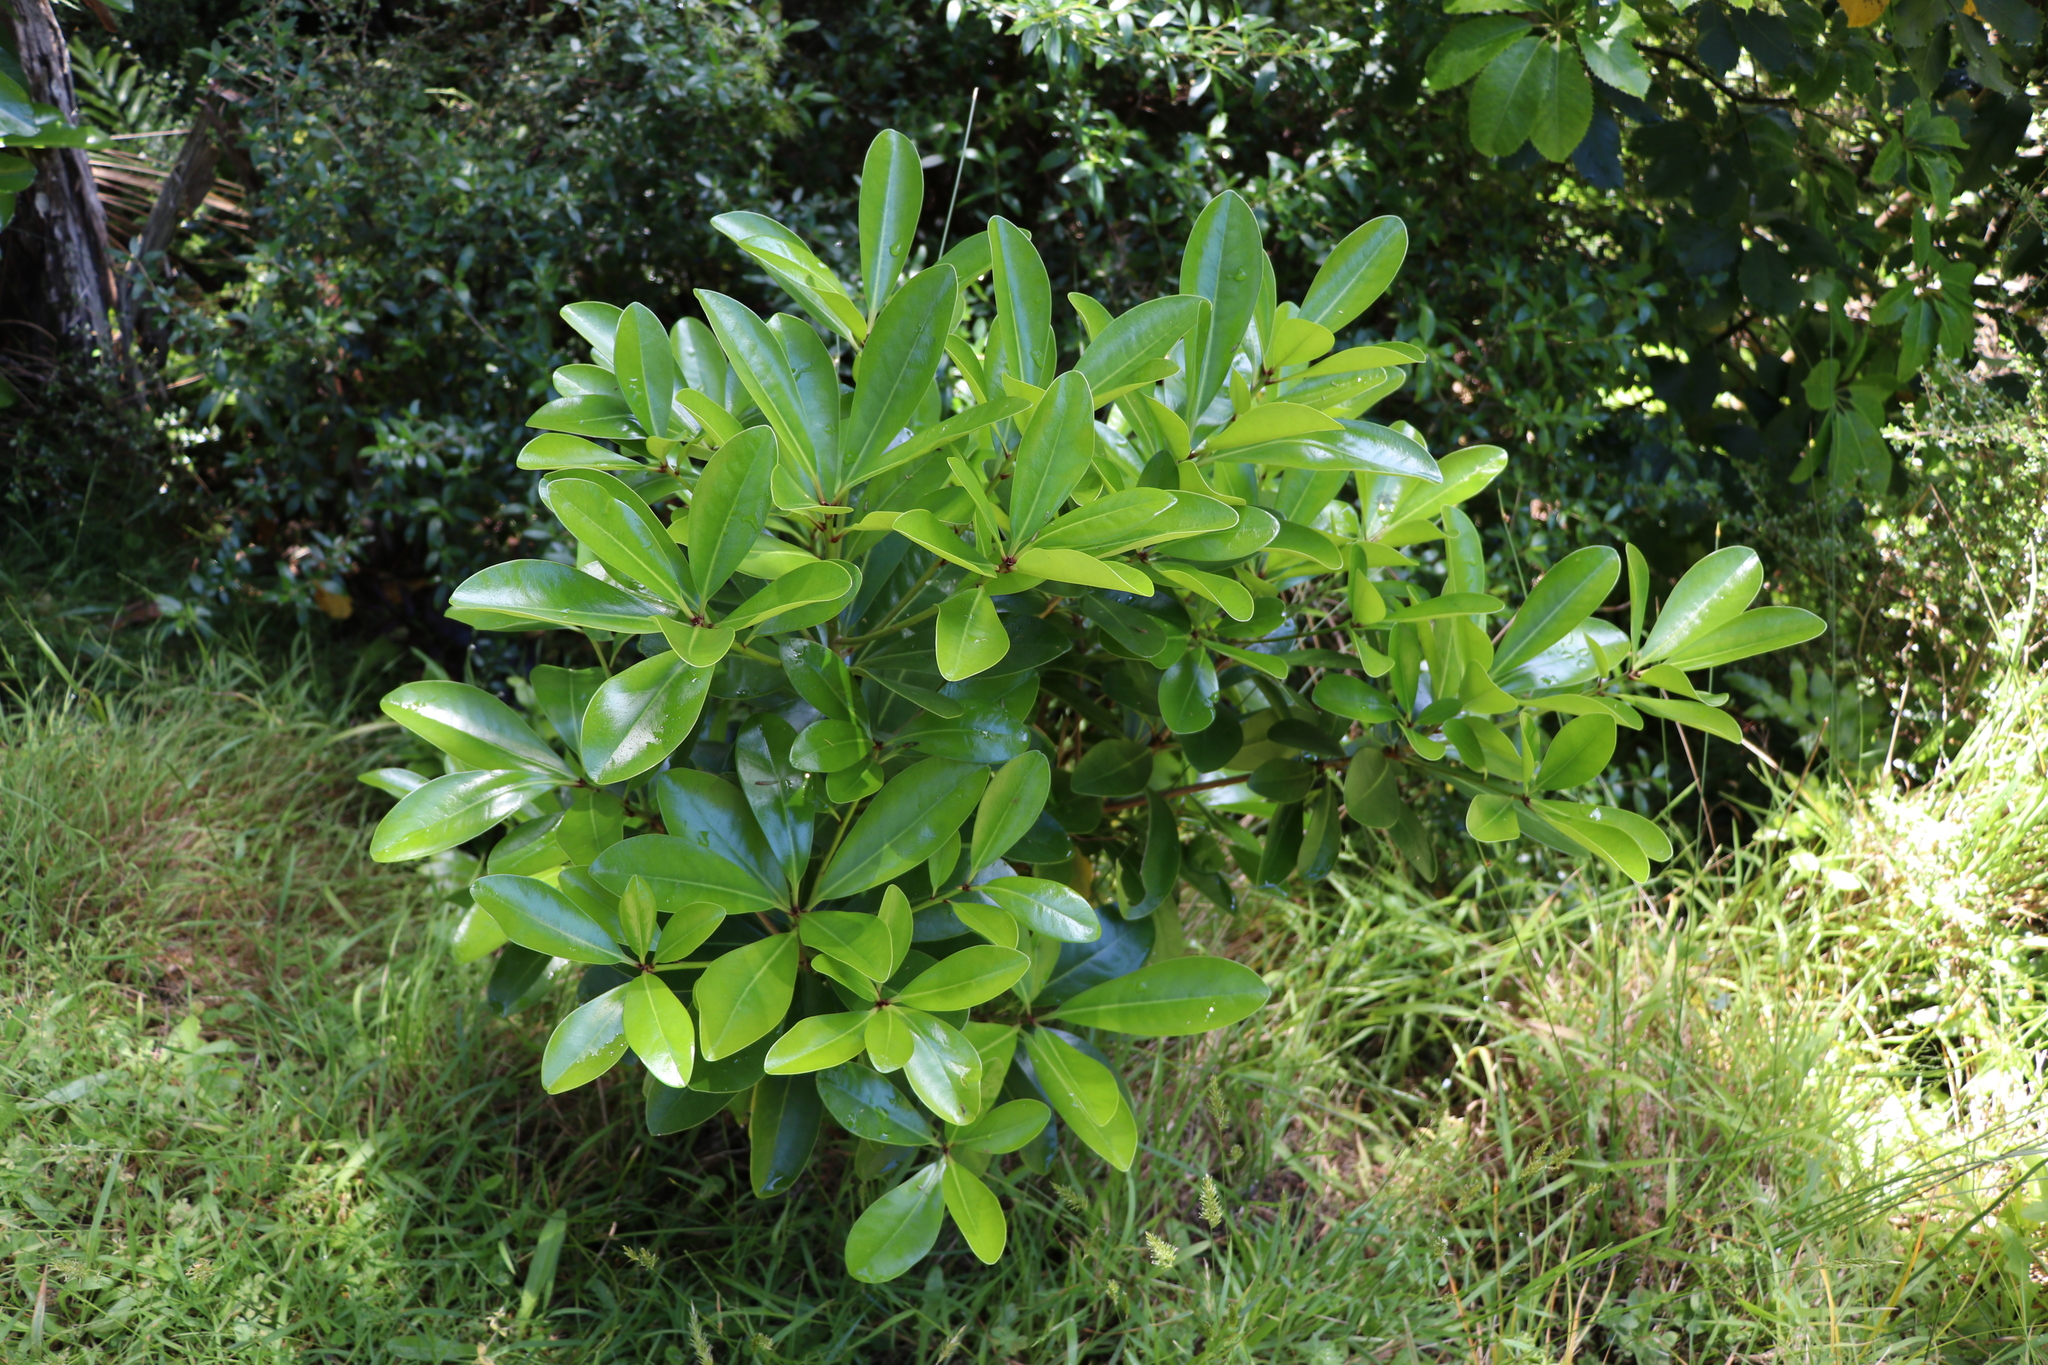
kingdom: Plantae
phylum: Tracheophyta
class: Magnoliopsida
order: Cucurbitales
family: Corynocarpaceae
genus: Corynocarpus
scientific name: Corynocarpus laevigatus
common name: New zealand laurel
